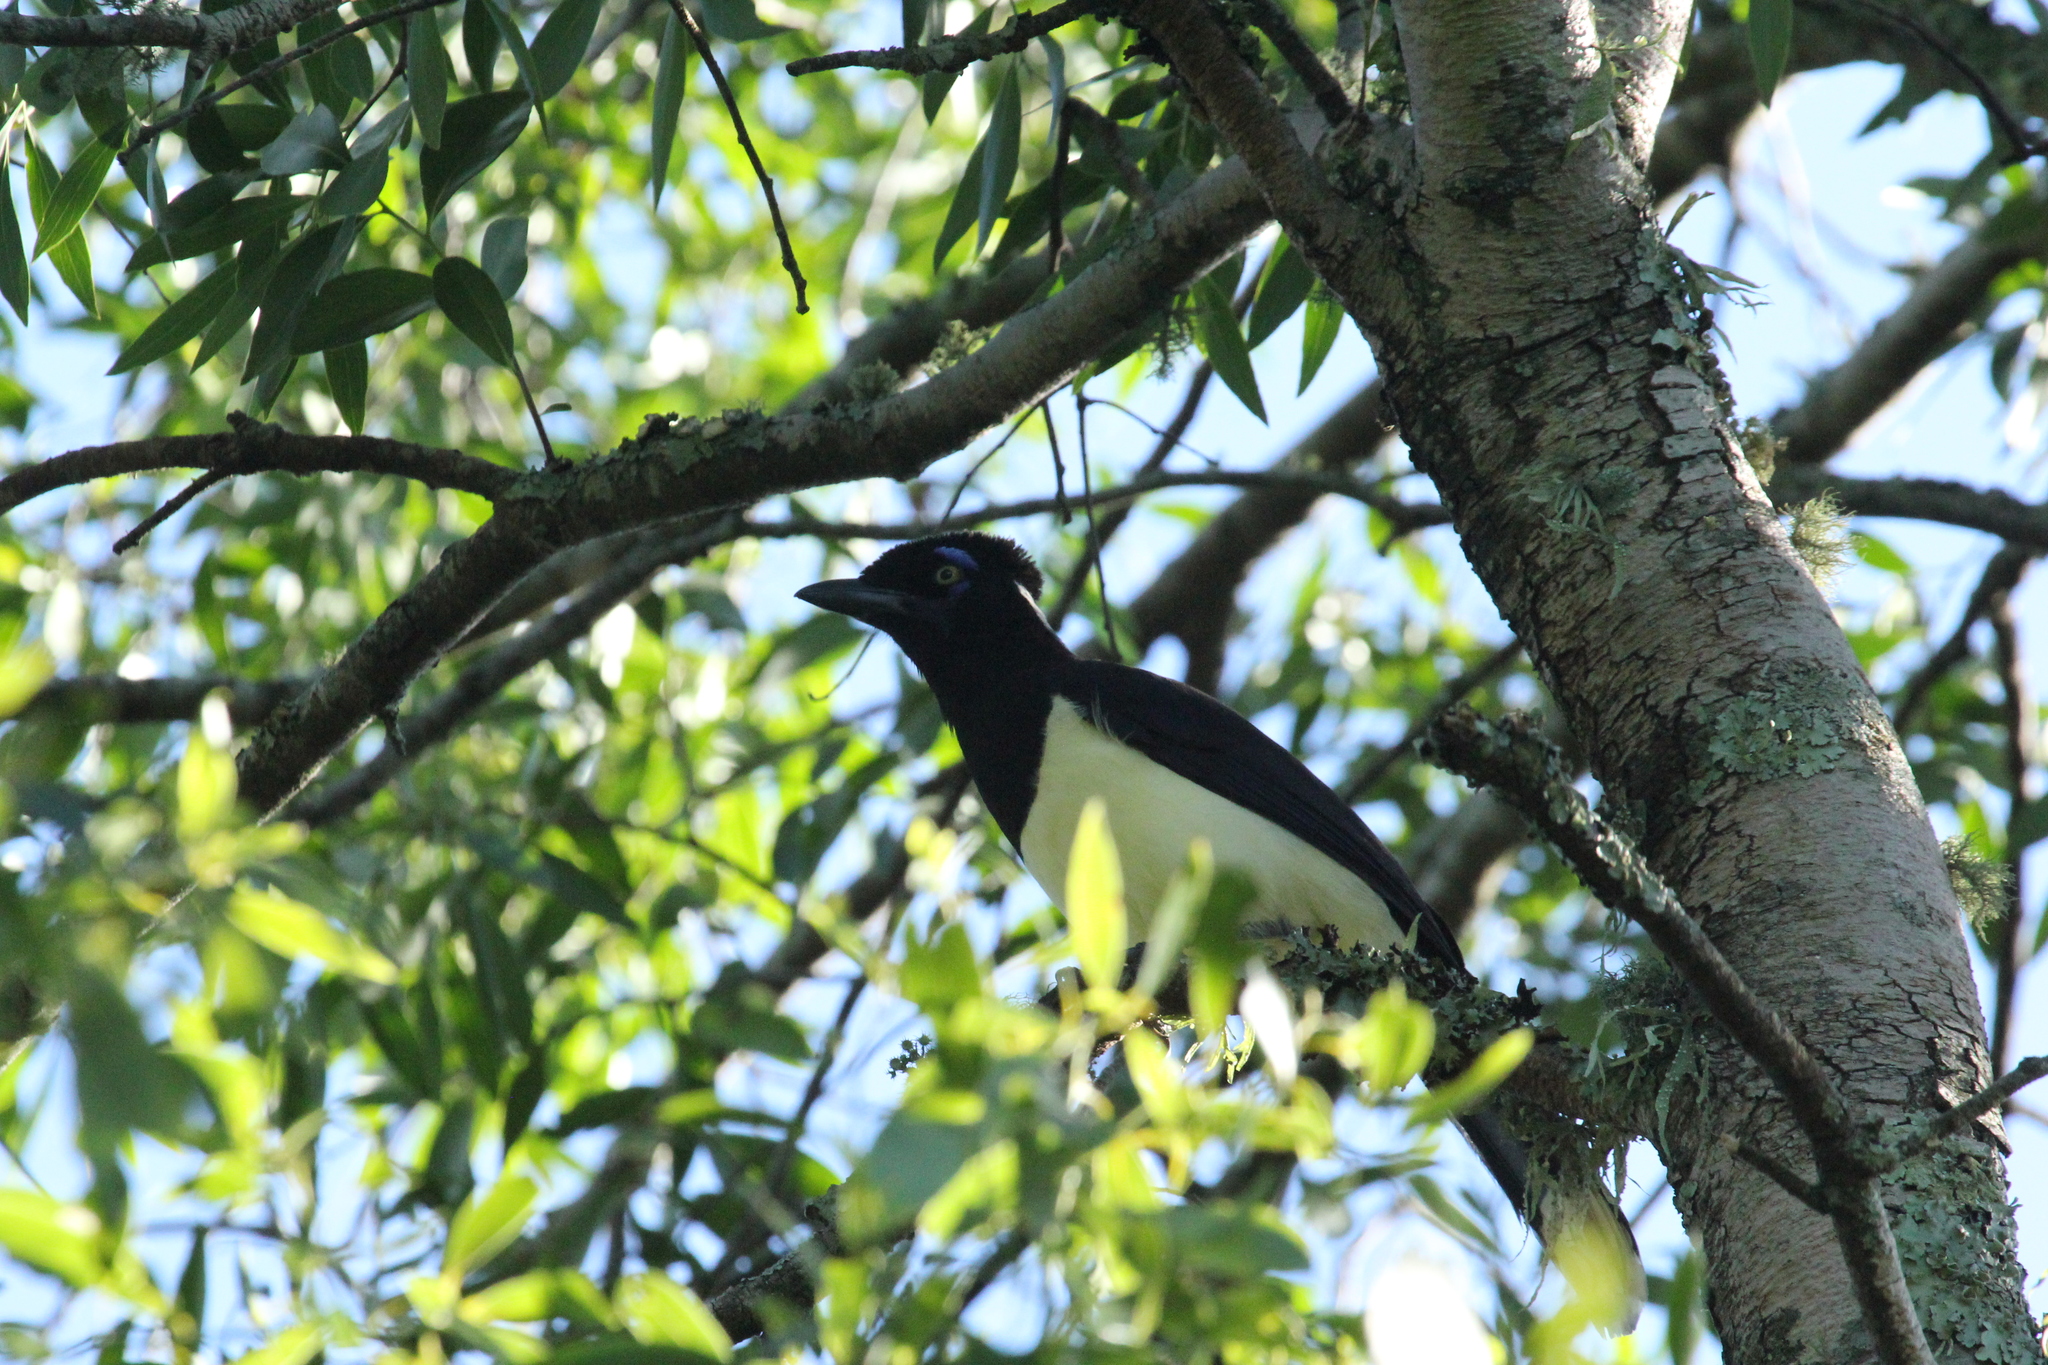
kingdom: Animalia
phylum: Chordata
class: Aves
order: Passeriformes
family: Corvidae
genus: Cyanocorax
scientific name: Cyanocorax chrysops
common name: Plush-crested jay
